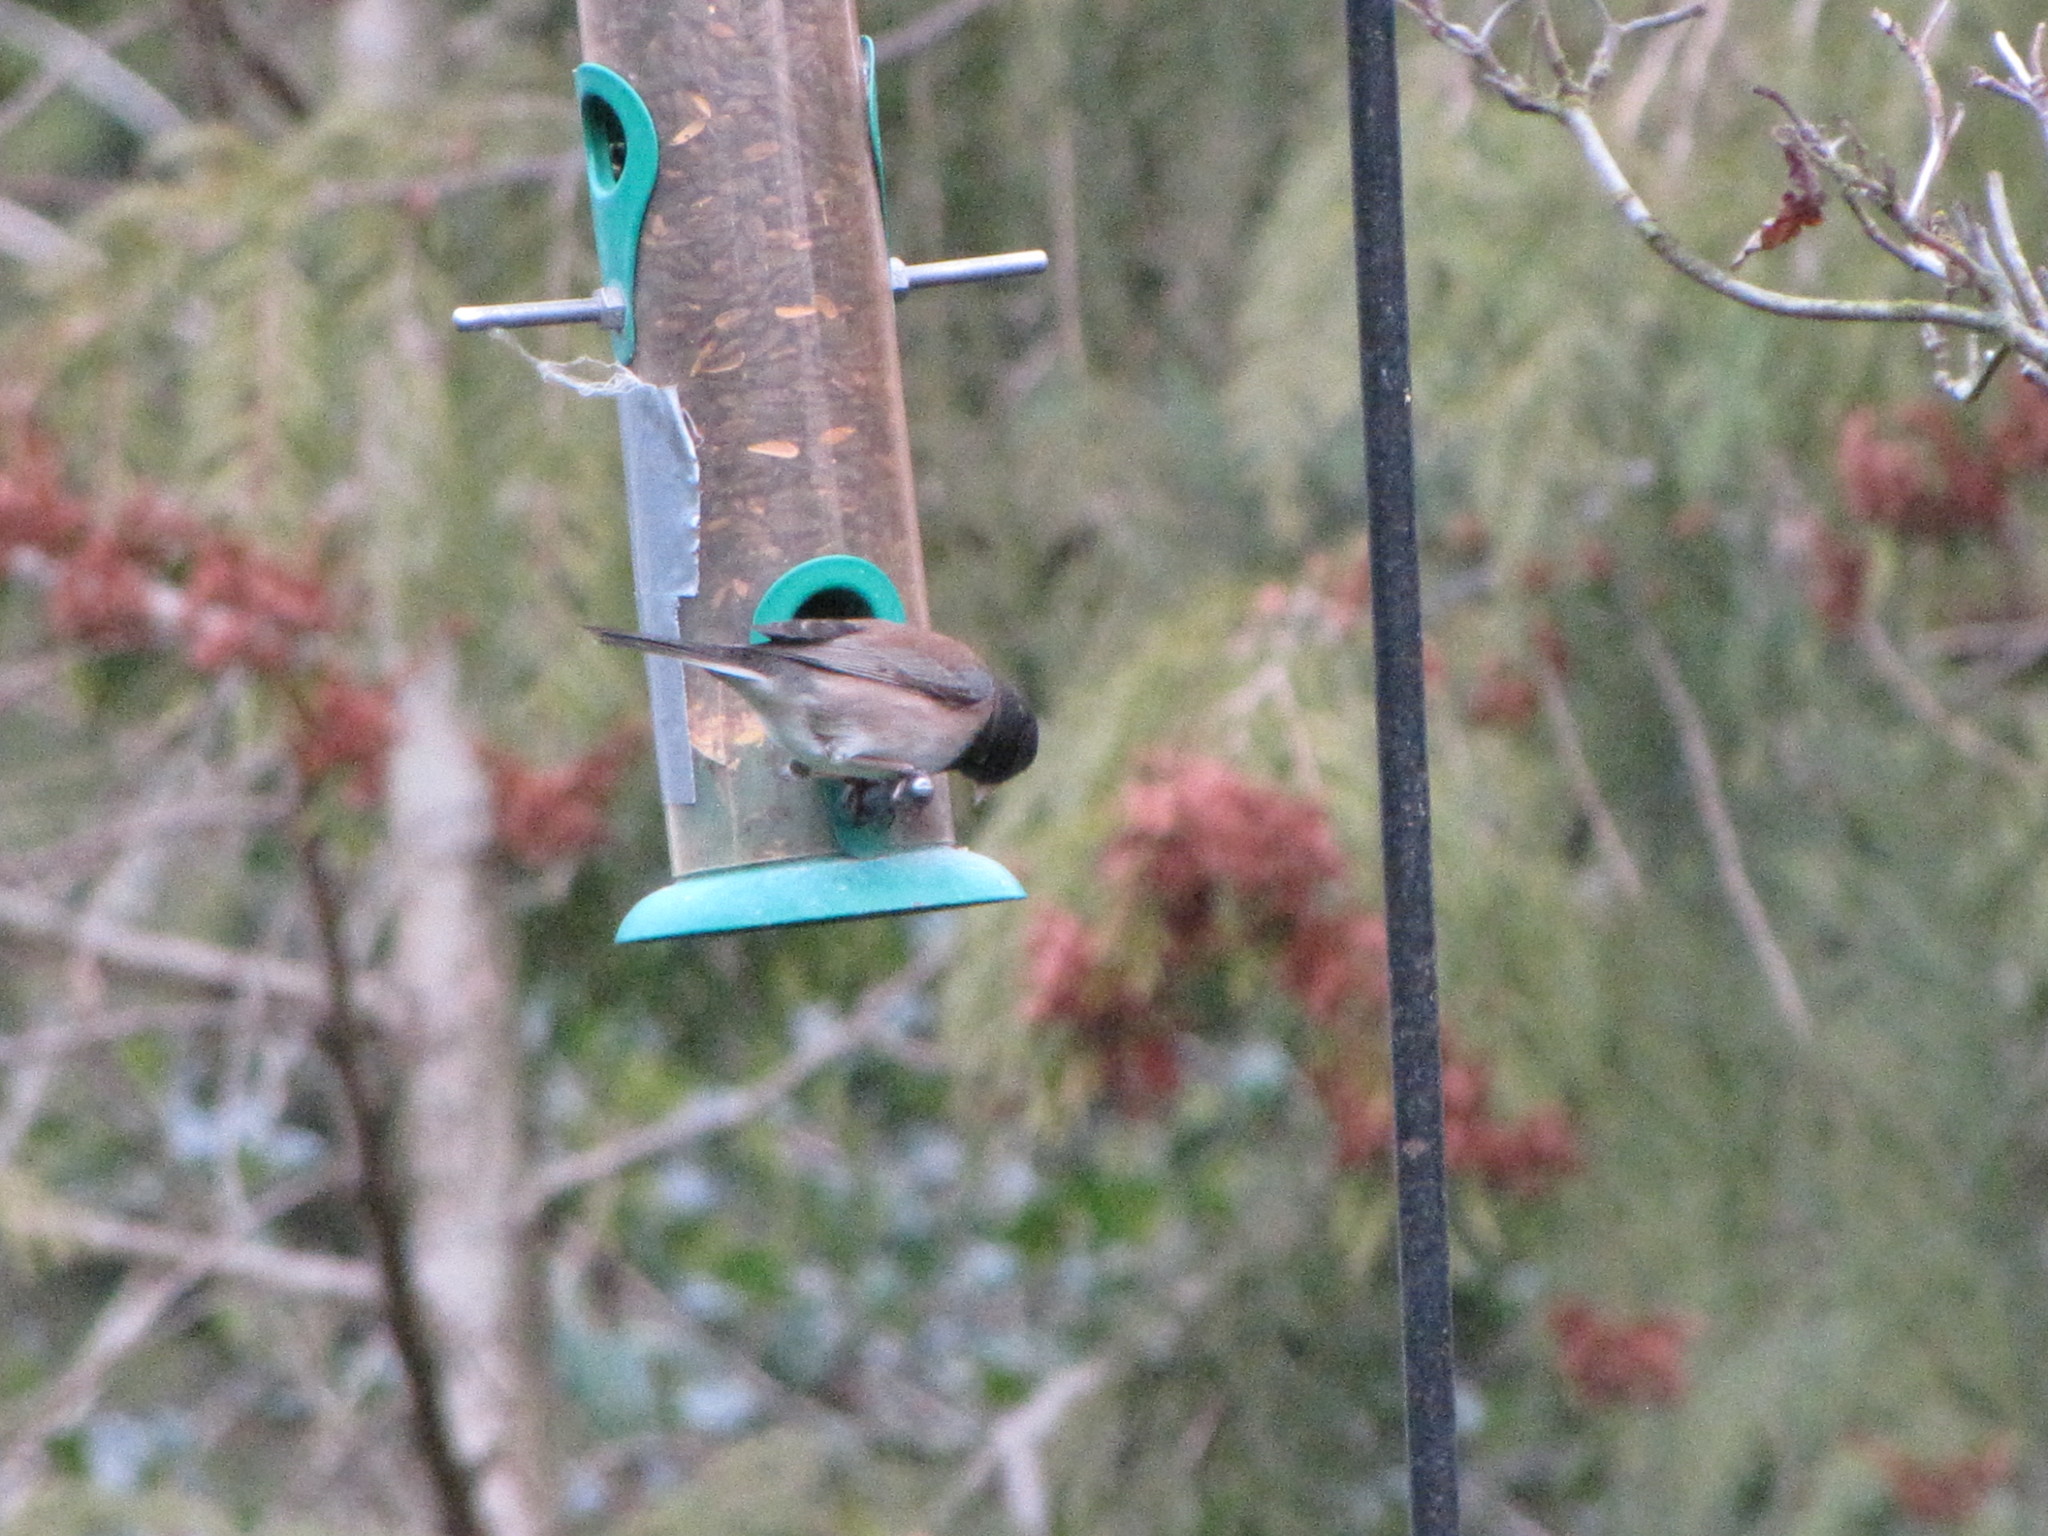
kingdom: Animalia
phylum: Chordata
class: Aves
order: Passeriformes
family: Passerellidae
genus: Junco
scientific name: Junco hyemalis
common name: Dark-eyed junco
